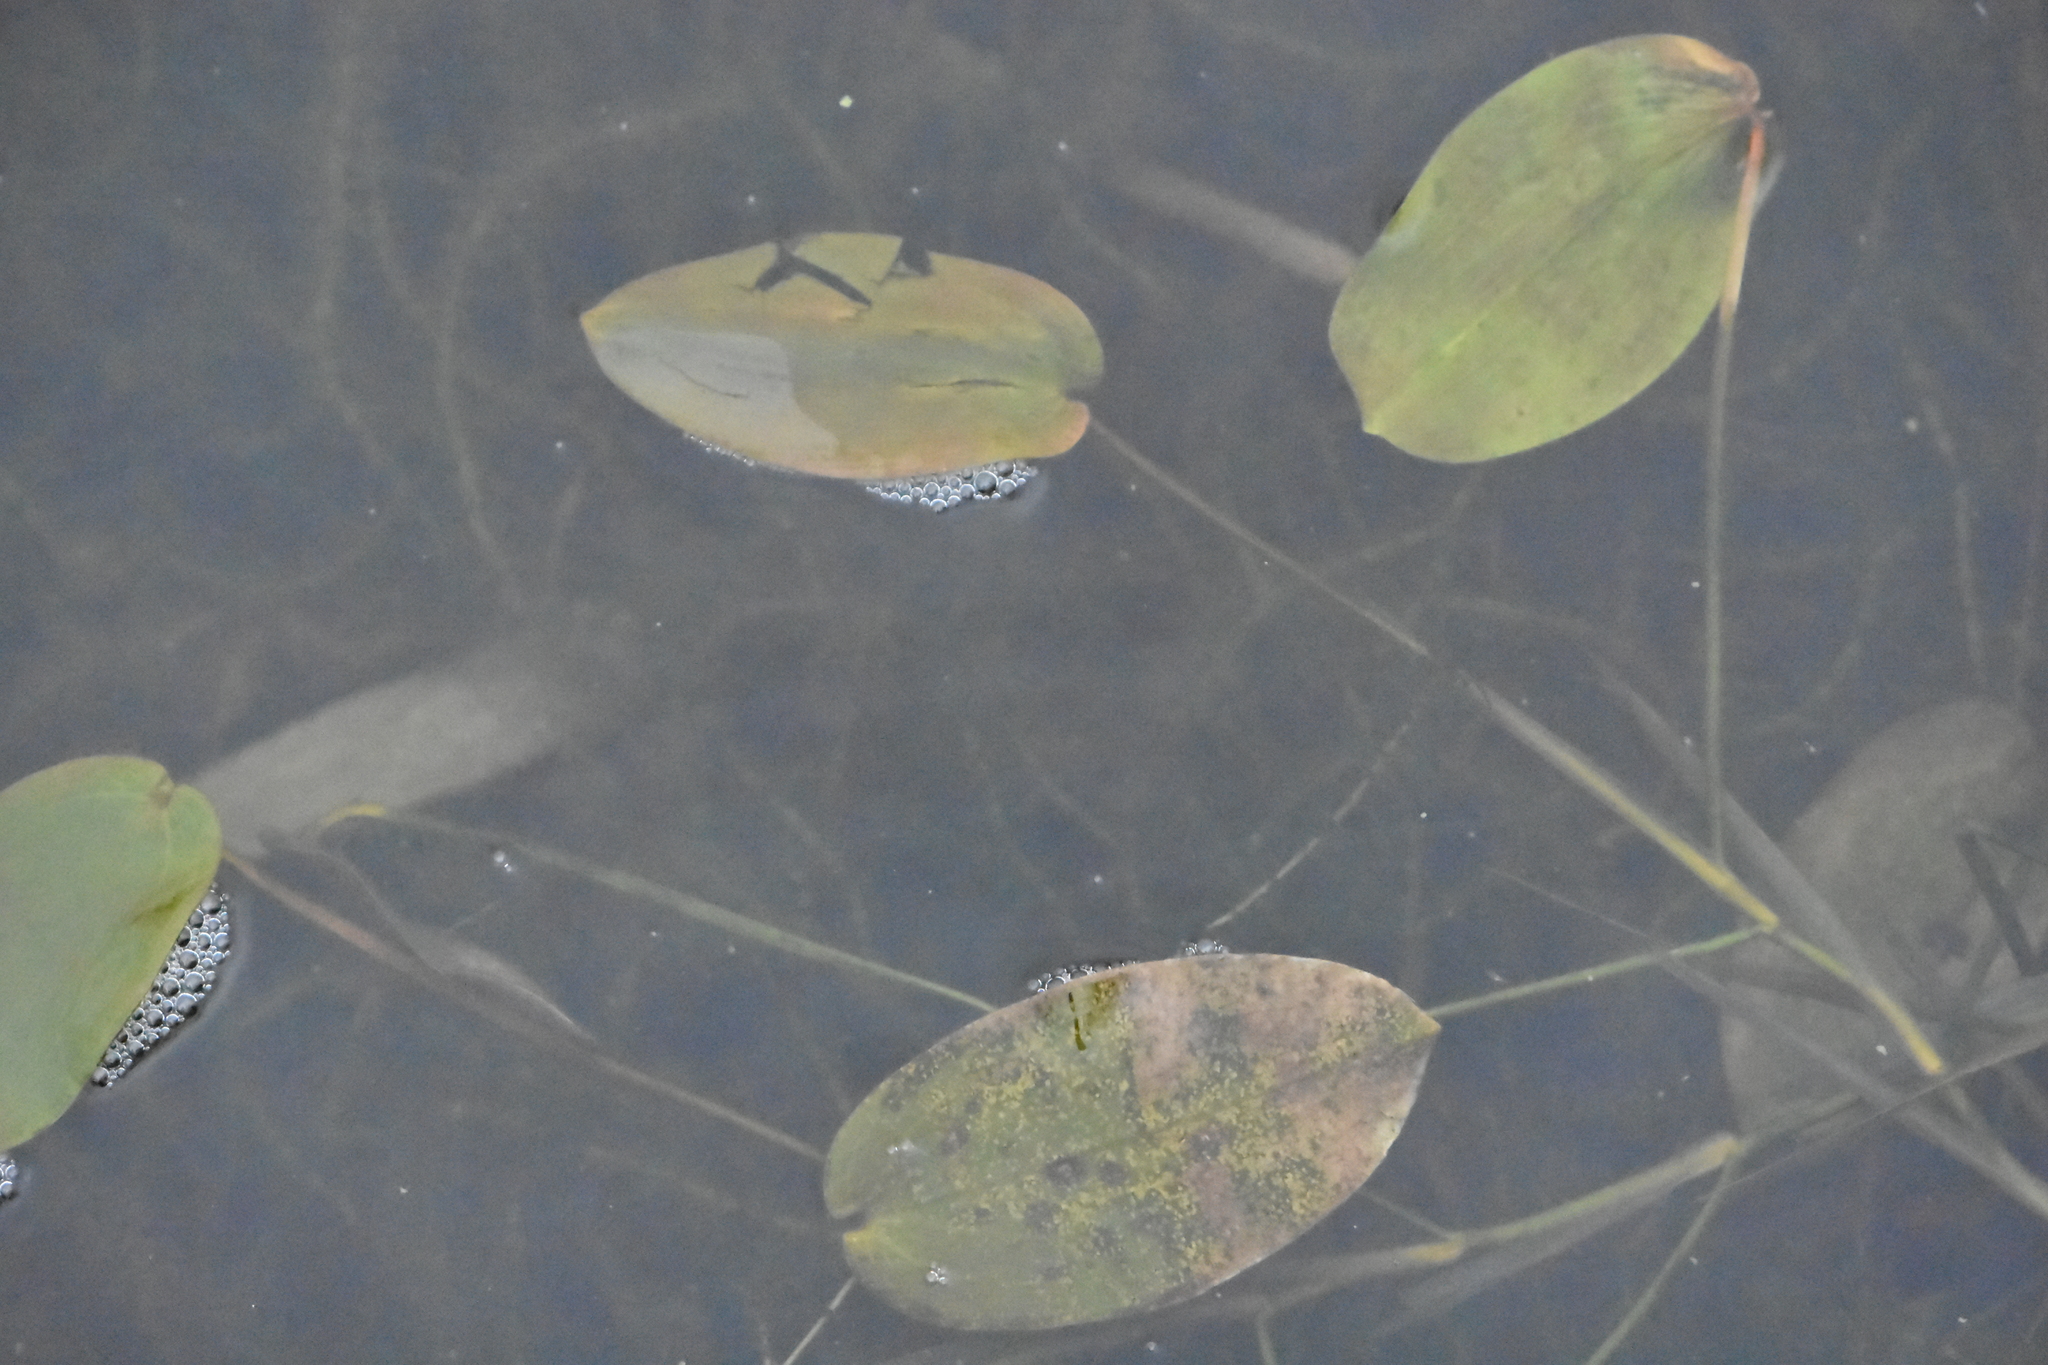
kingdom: Plantae
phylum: Tracheophyta
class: Liliopsida
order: Alismatales
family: Potamogetonaceae
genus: Potamogeton
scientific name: Potamogeton natans
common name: Broad-leaved pondweed
